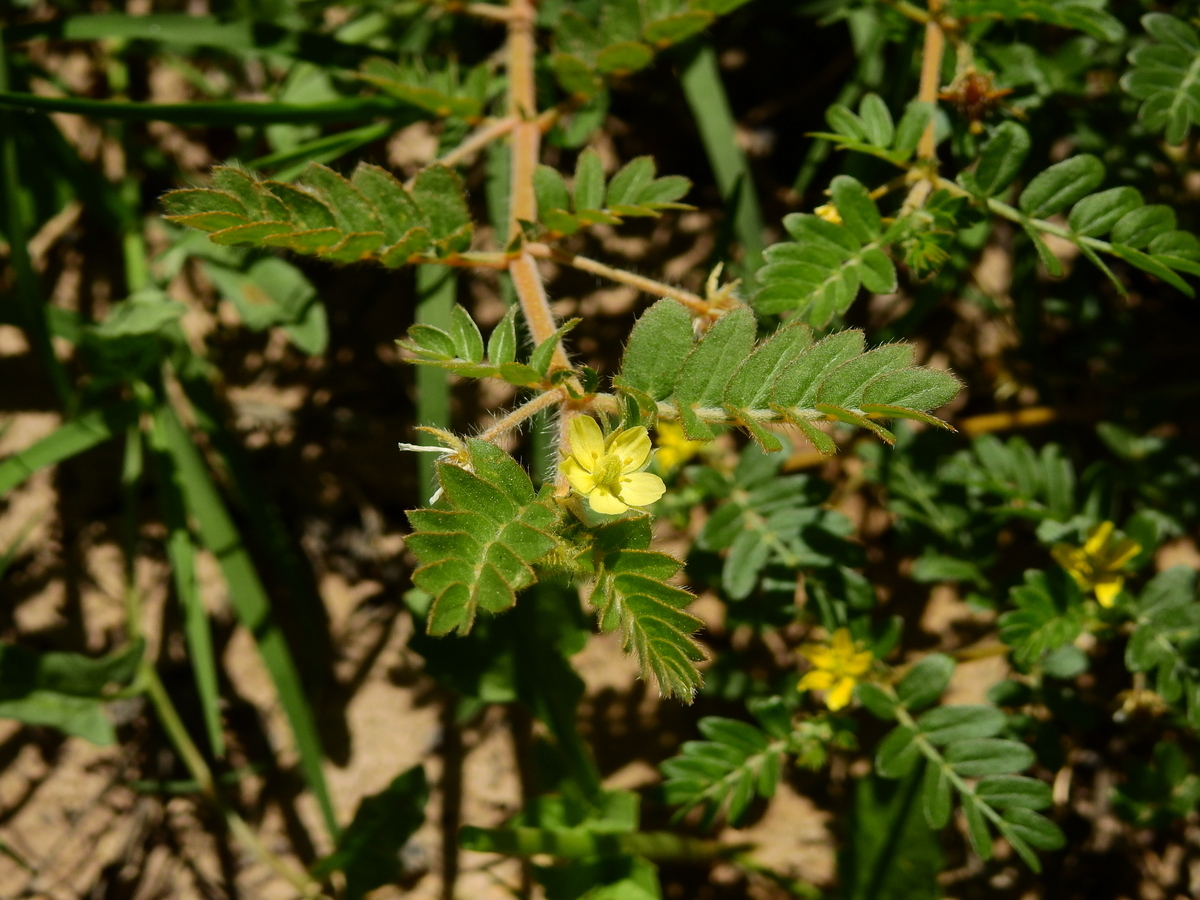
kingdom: Plantae
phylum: Tracheophyta
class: Magnoliopsida
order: Zygophyllales
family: Zygophyllaceae
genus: Tribulus
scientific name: Tribulus terrestris
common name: Puncturevine
